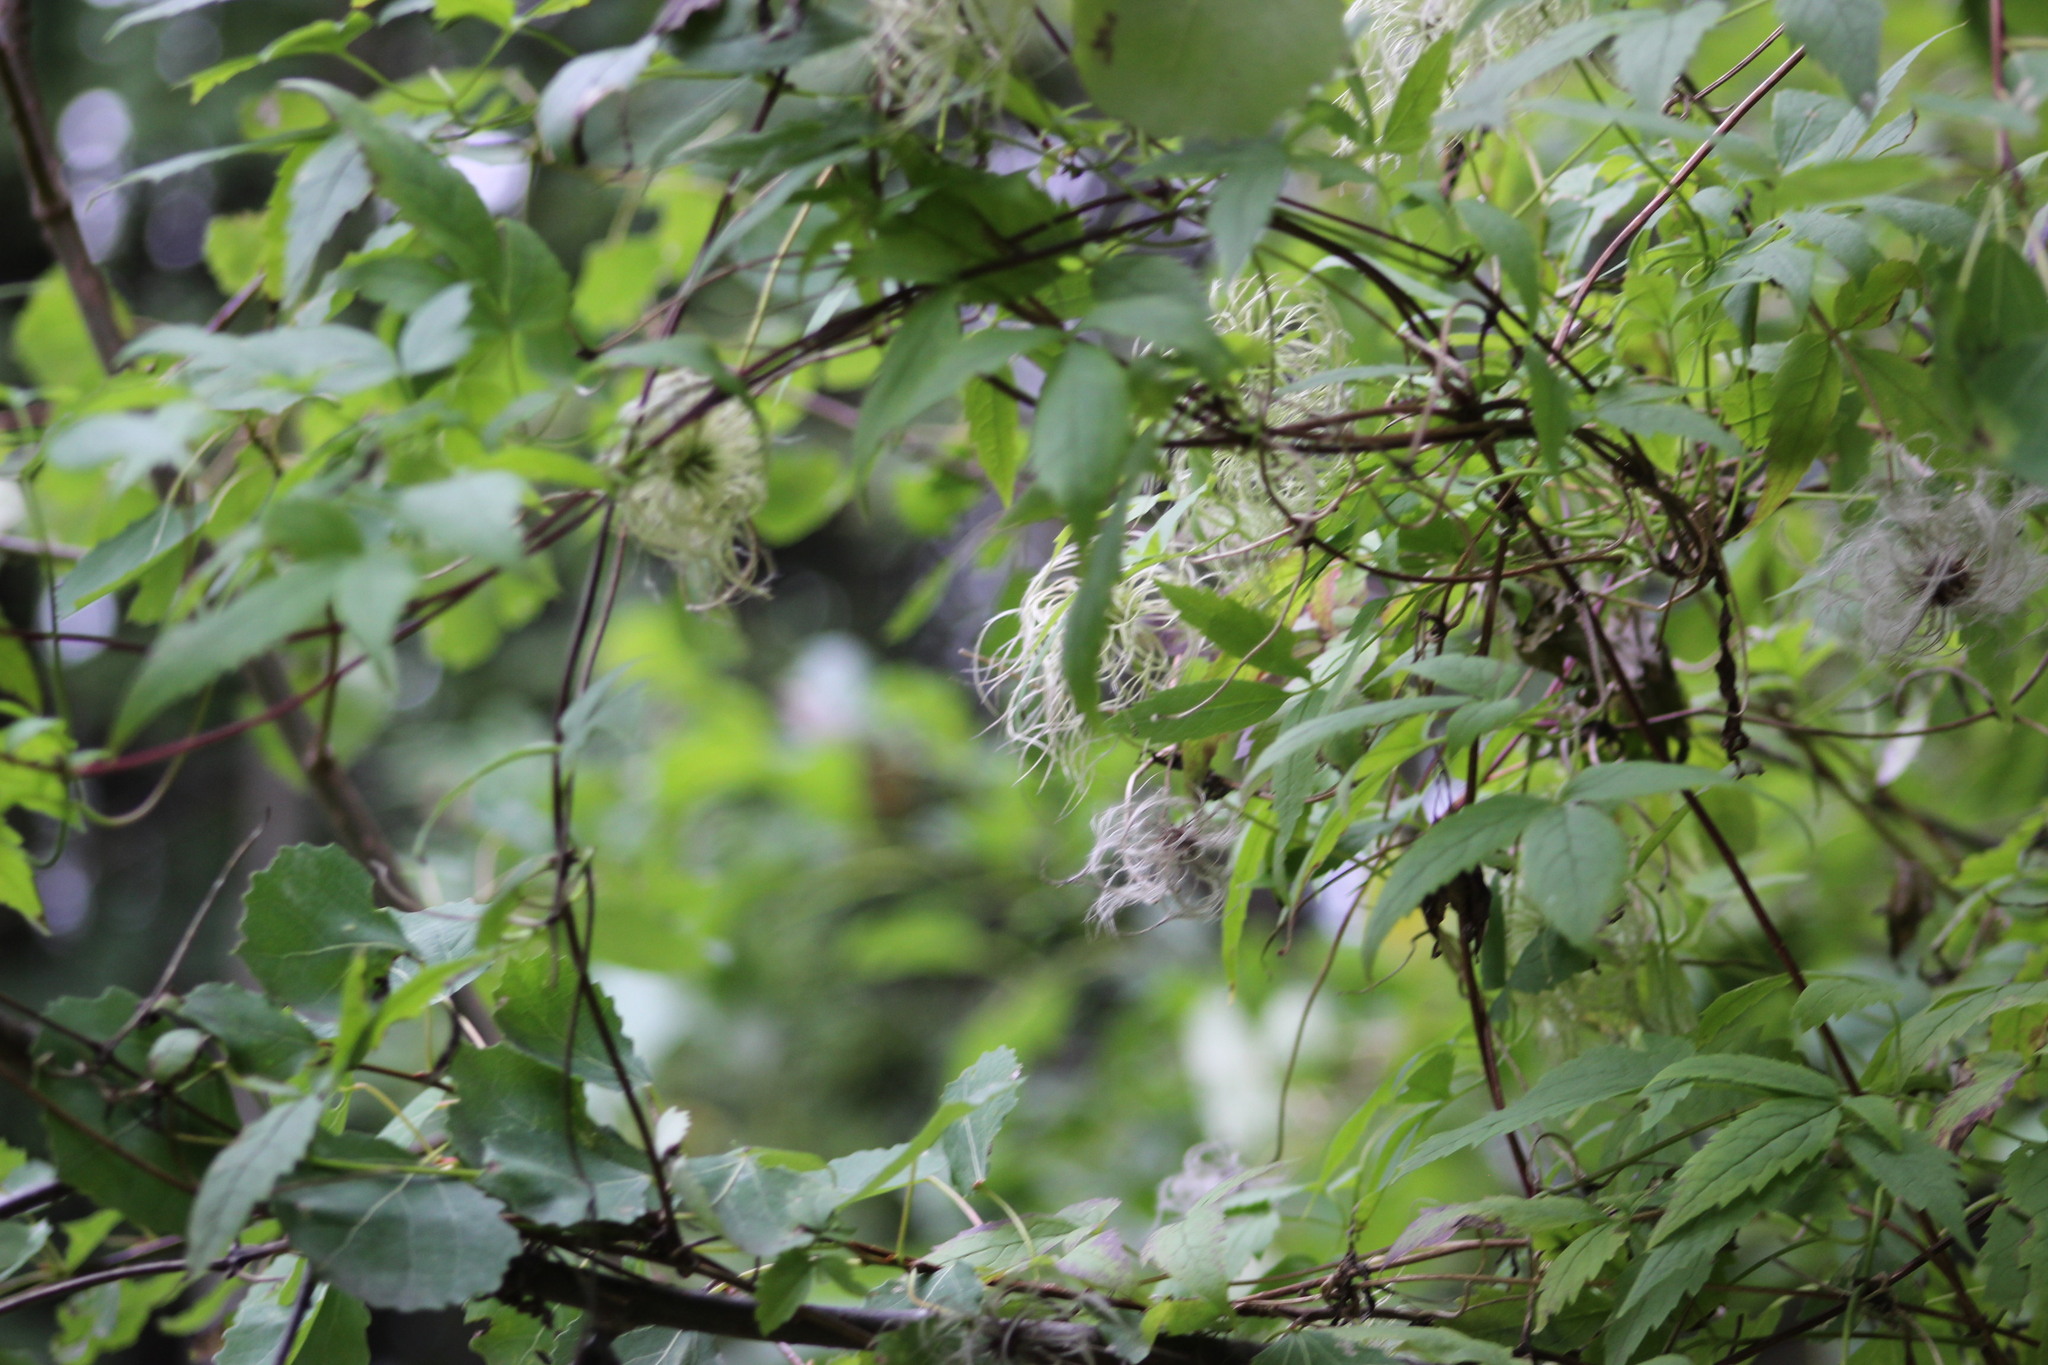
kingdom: Plantae
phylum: Tracheophyta
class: Magnoliopsida
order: Ranunculales
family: Ranunculaceae
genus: Clematis
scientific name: Clematis sibirica
